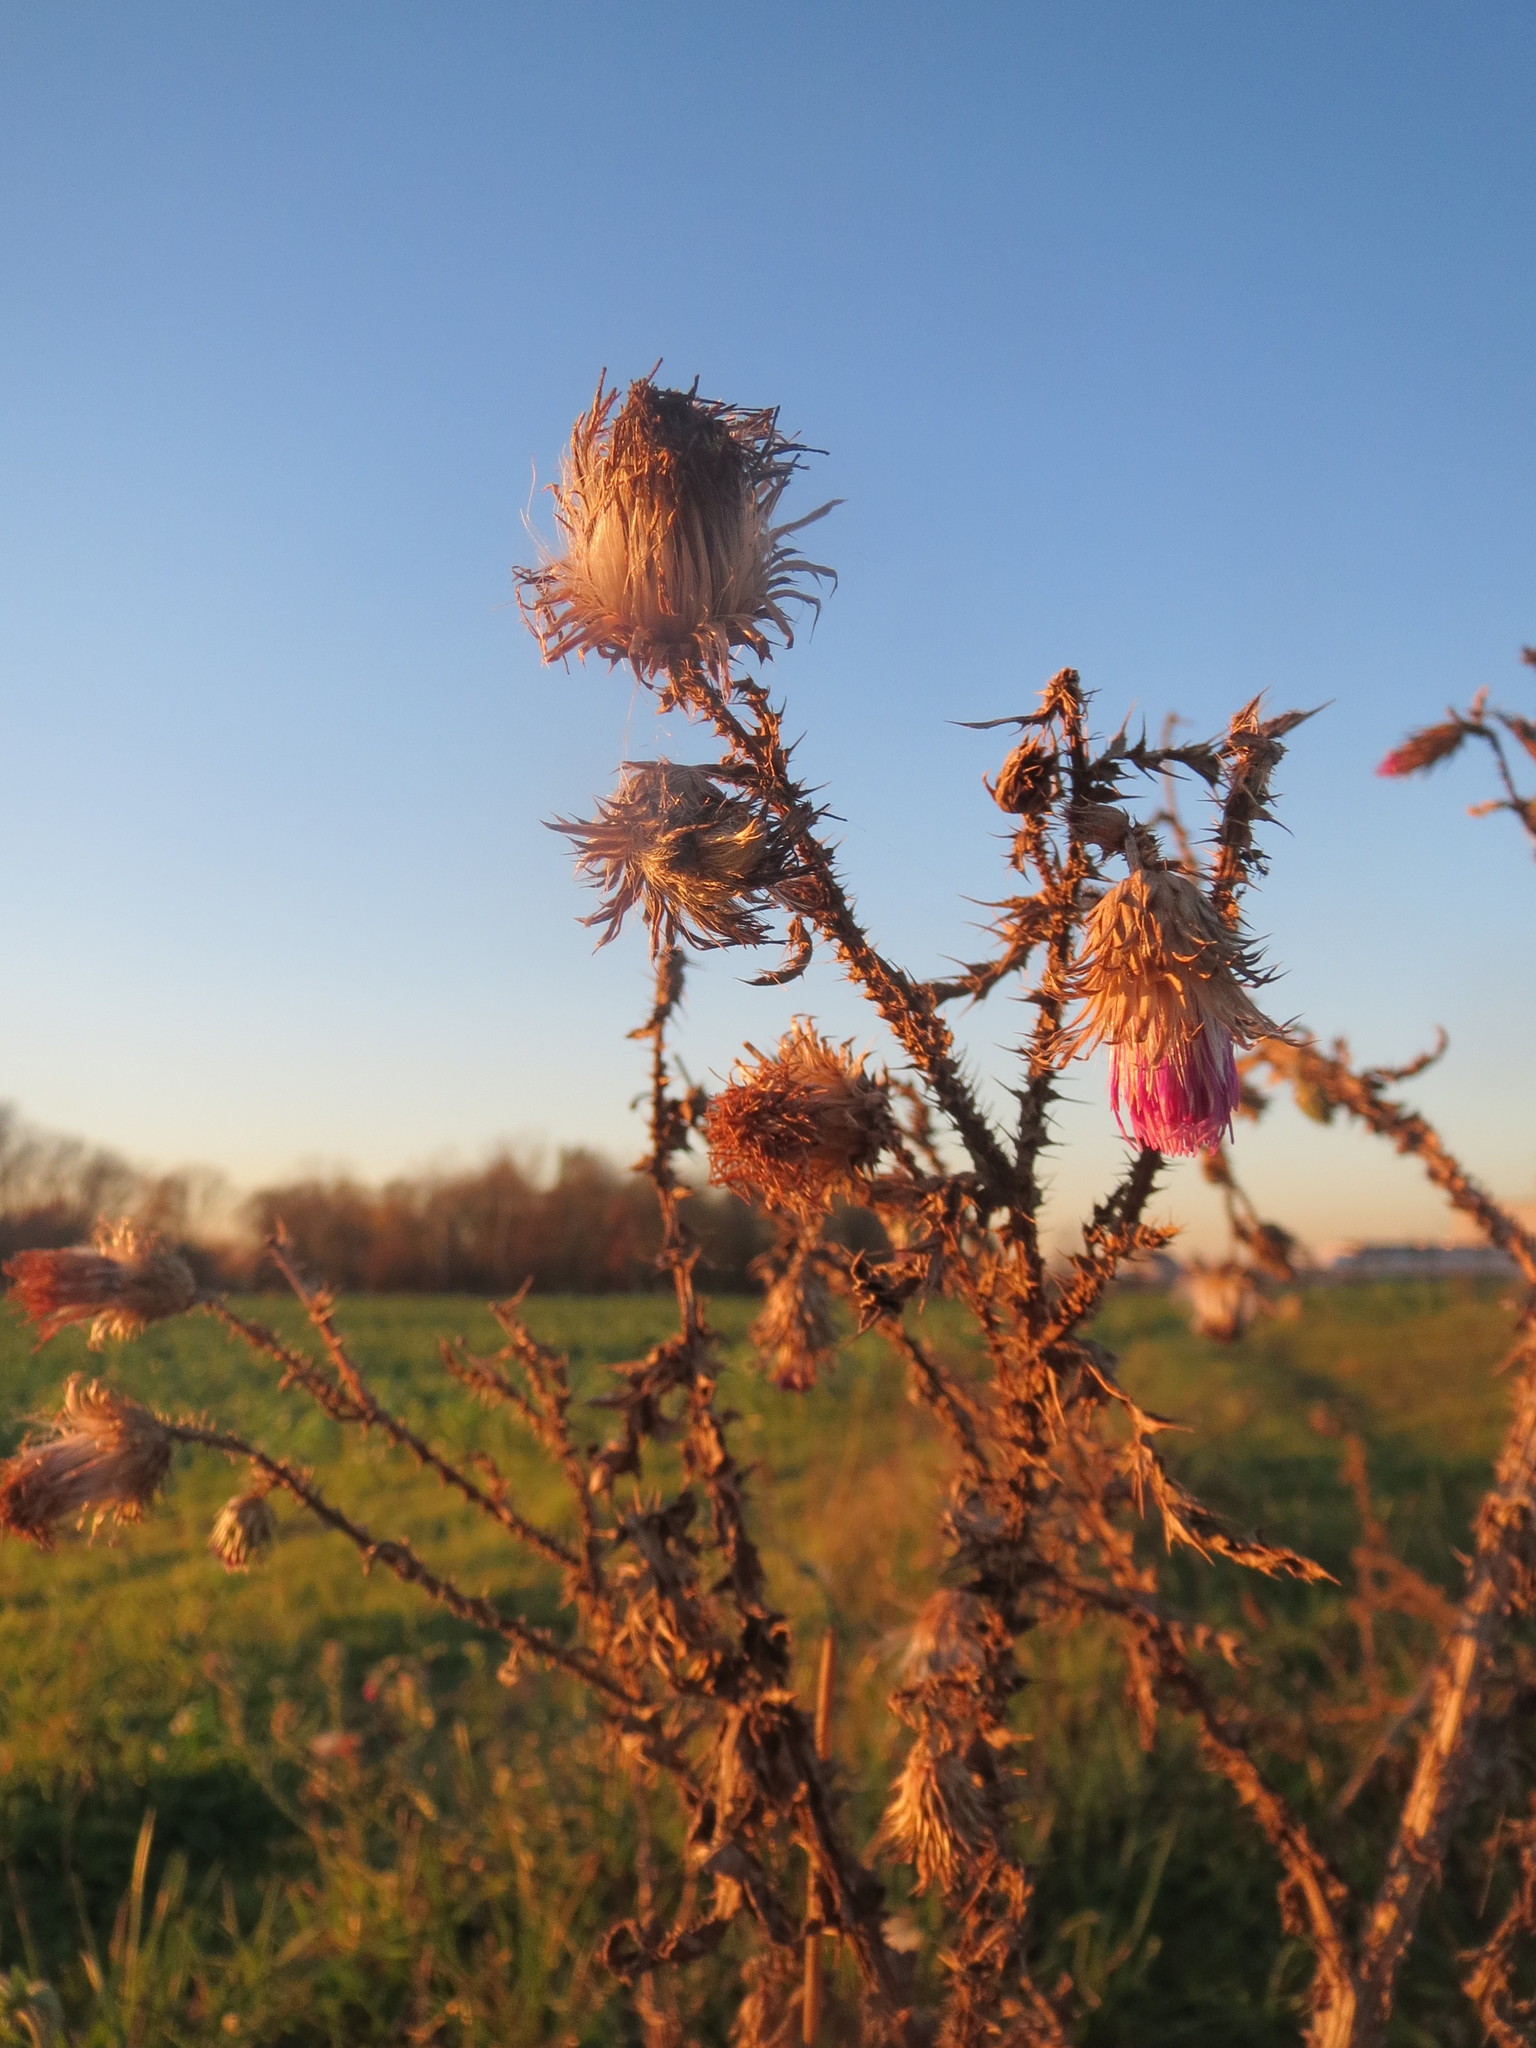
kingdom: Plantae
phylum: Tracheophyta
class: Magnoliopsida
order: Asterales
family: Asteraceae
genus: Carduus
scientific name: Carduus acanthoides
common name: Plumeless thistle
